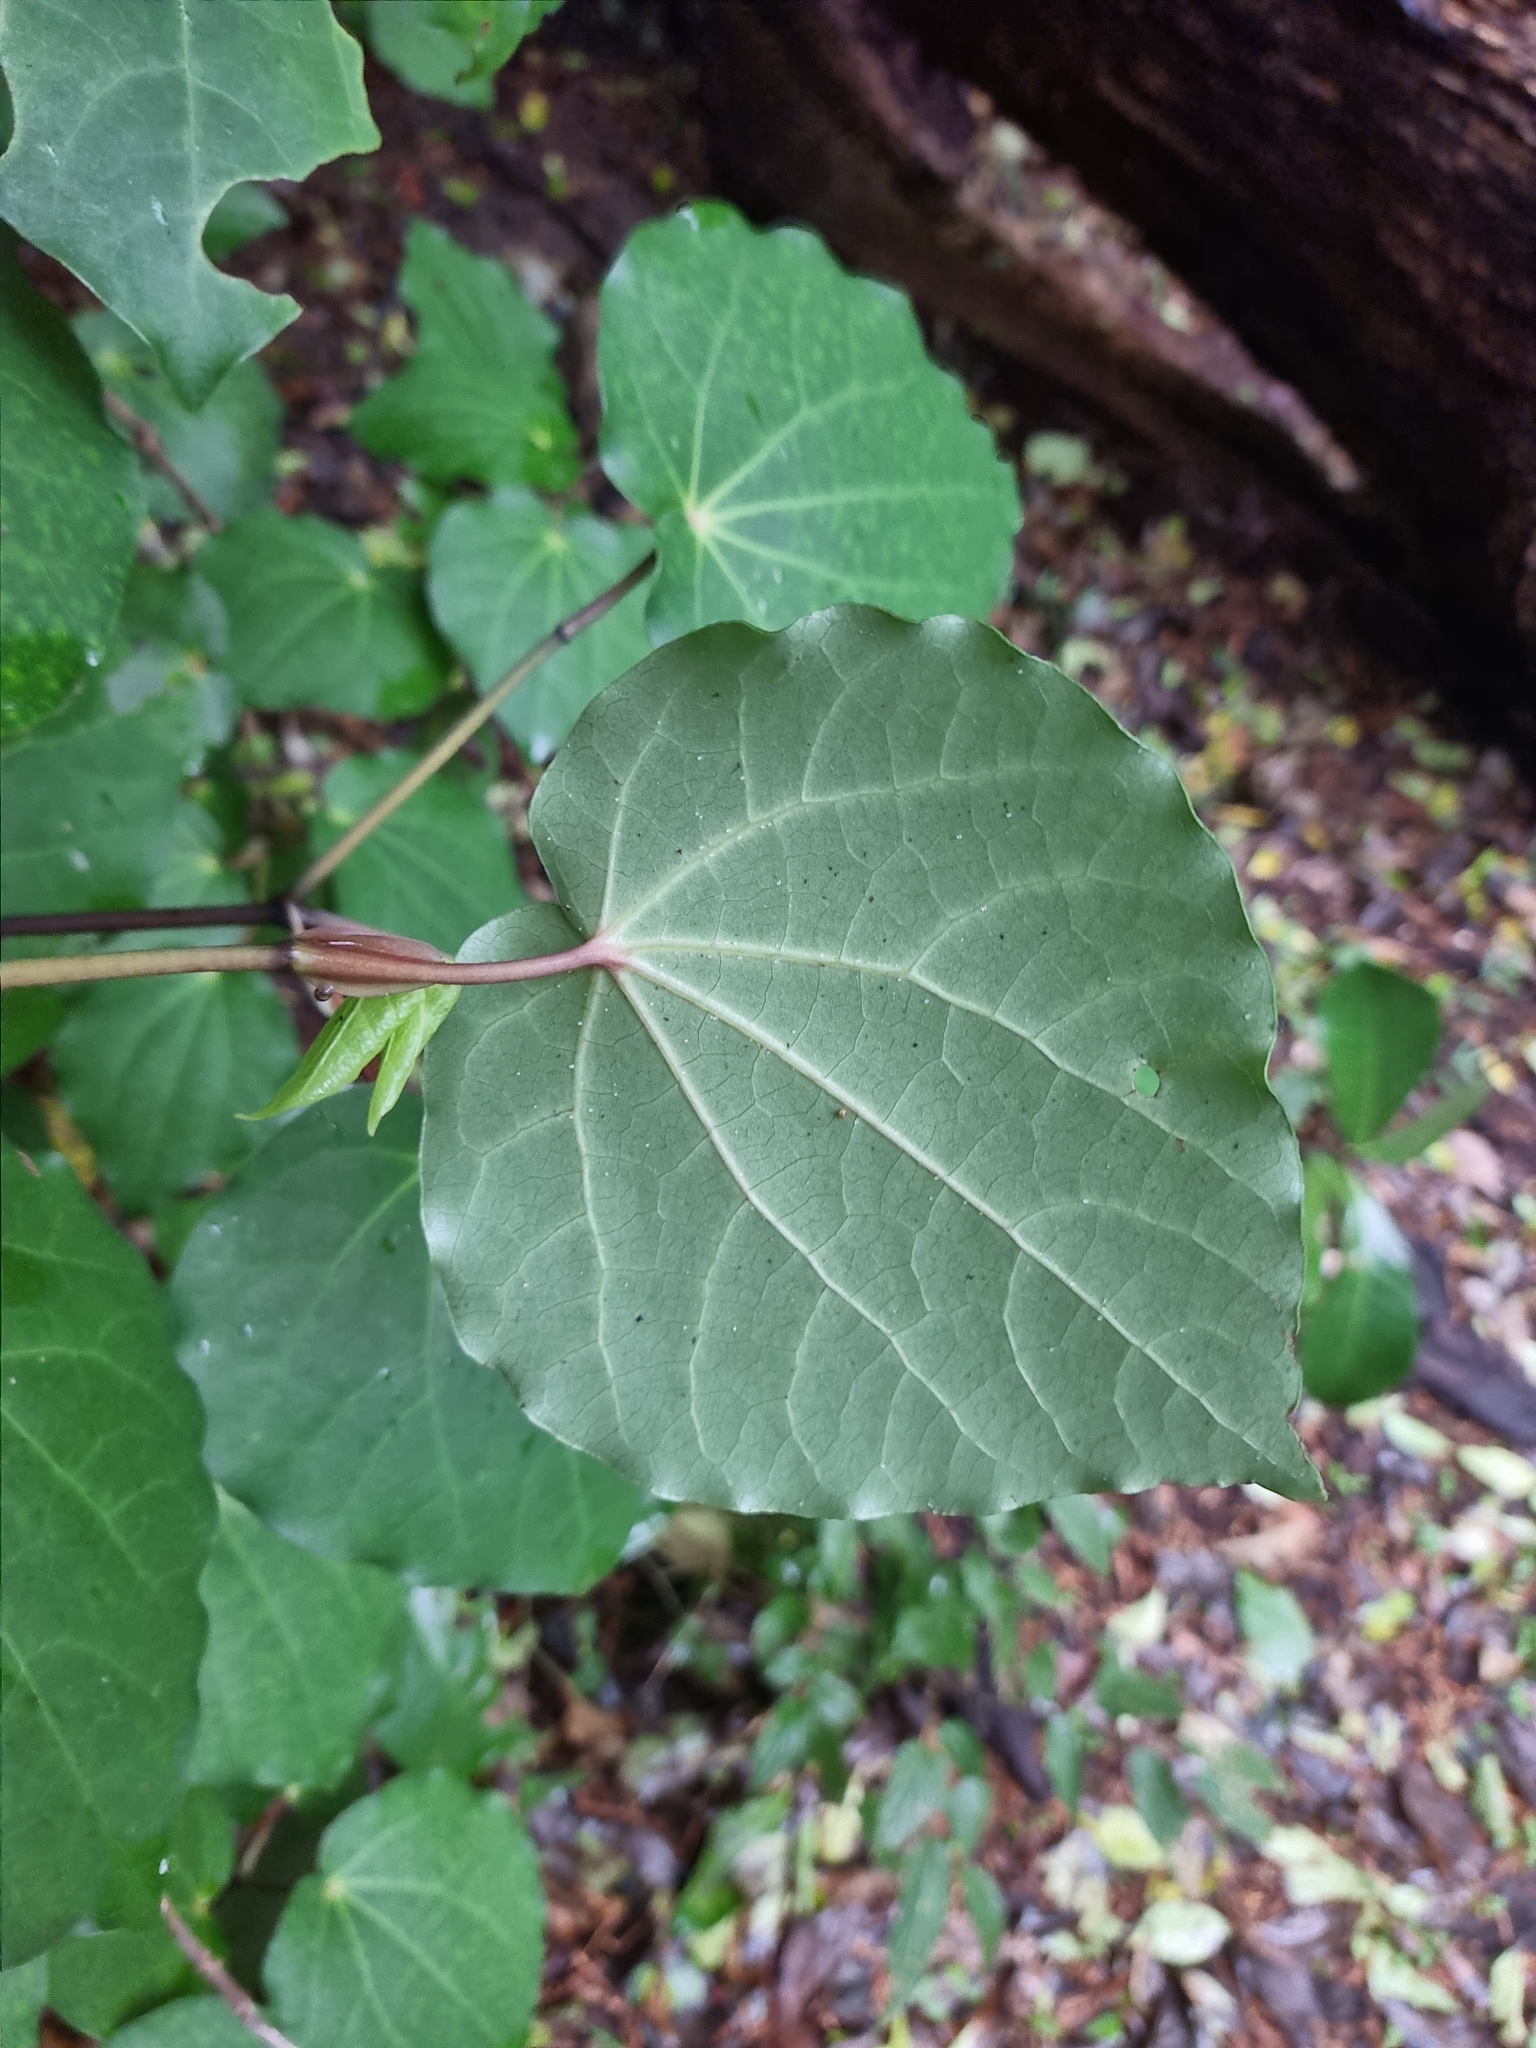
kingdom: Plantae
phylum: Tracheophyta
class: Magnoliopsida
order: Piperales
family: Piperaceae
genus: Macropiper
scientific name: Macropiper excelsum
